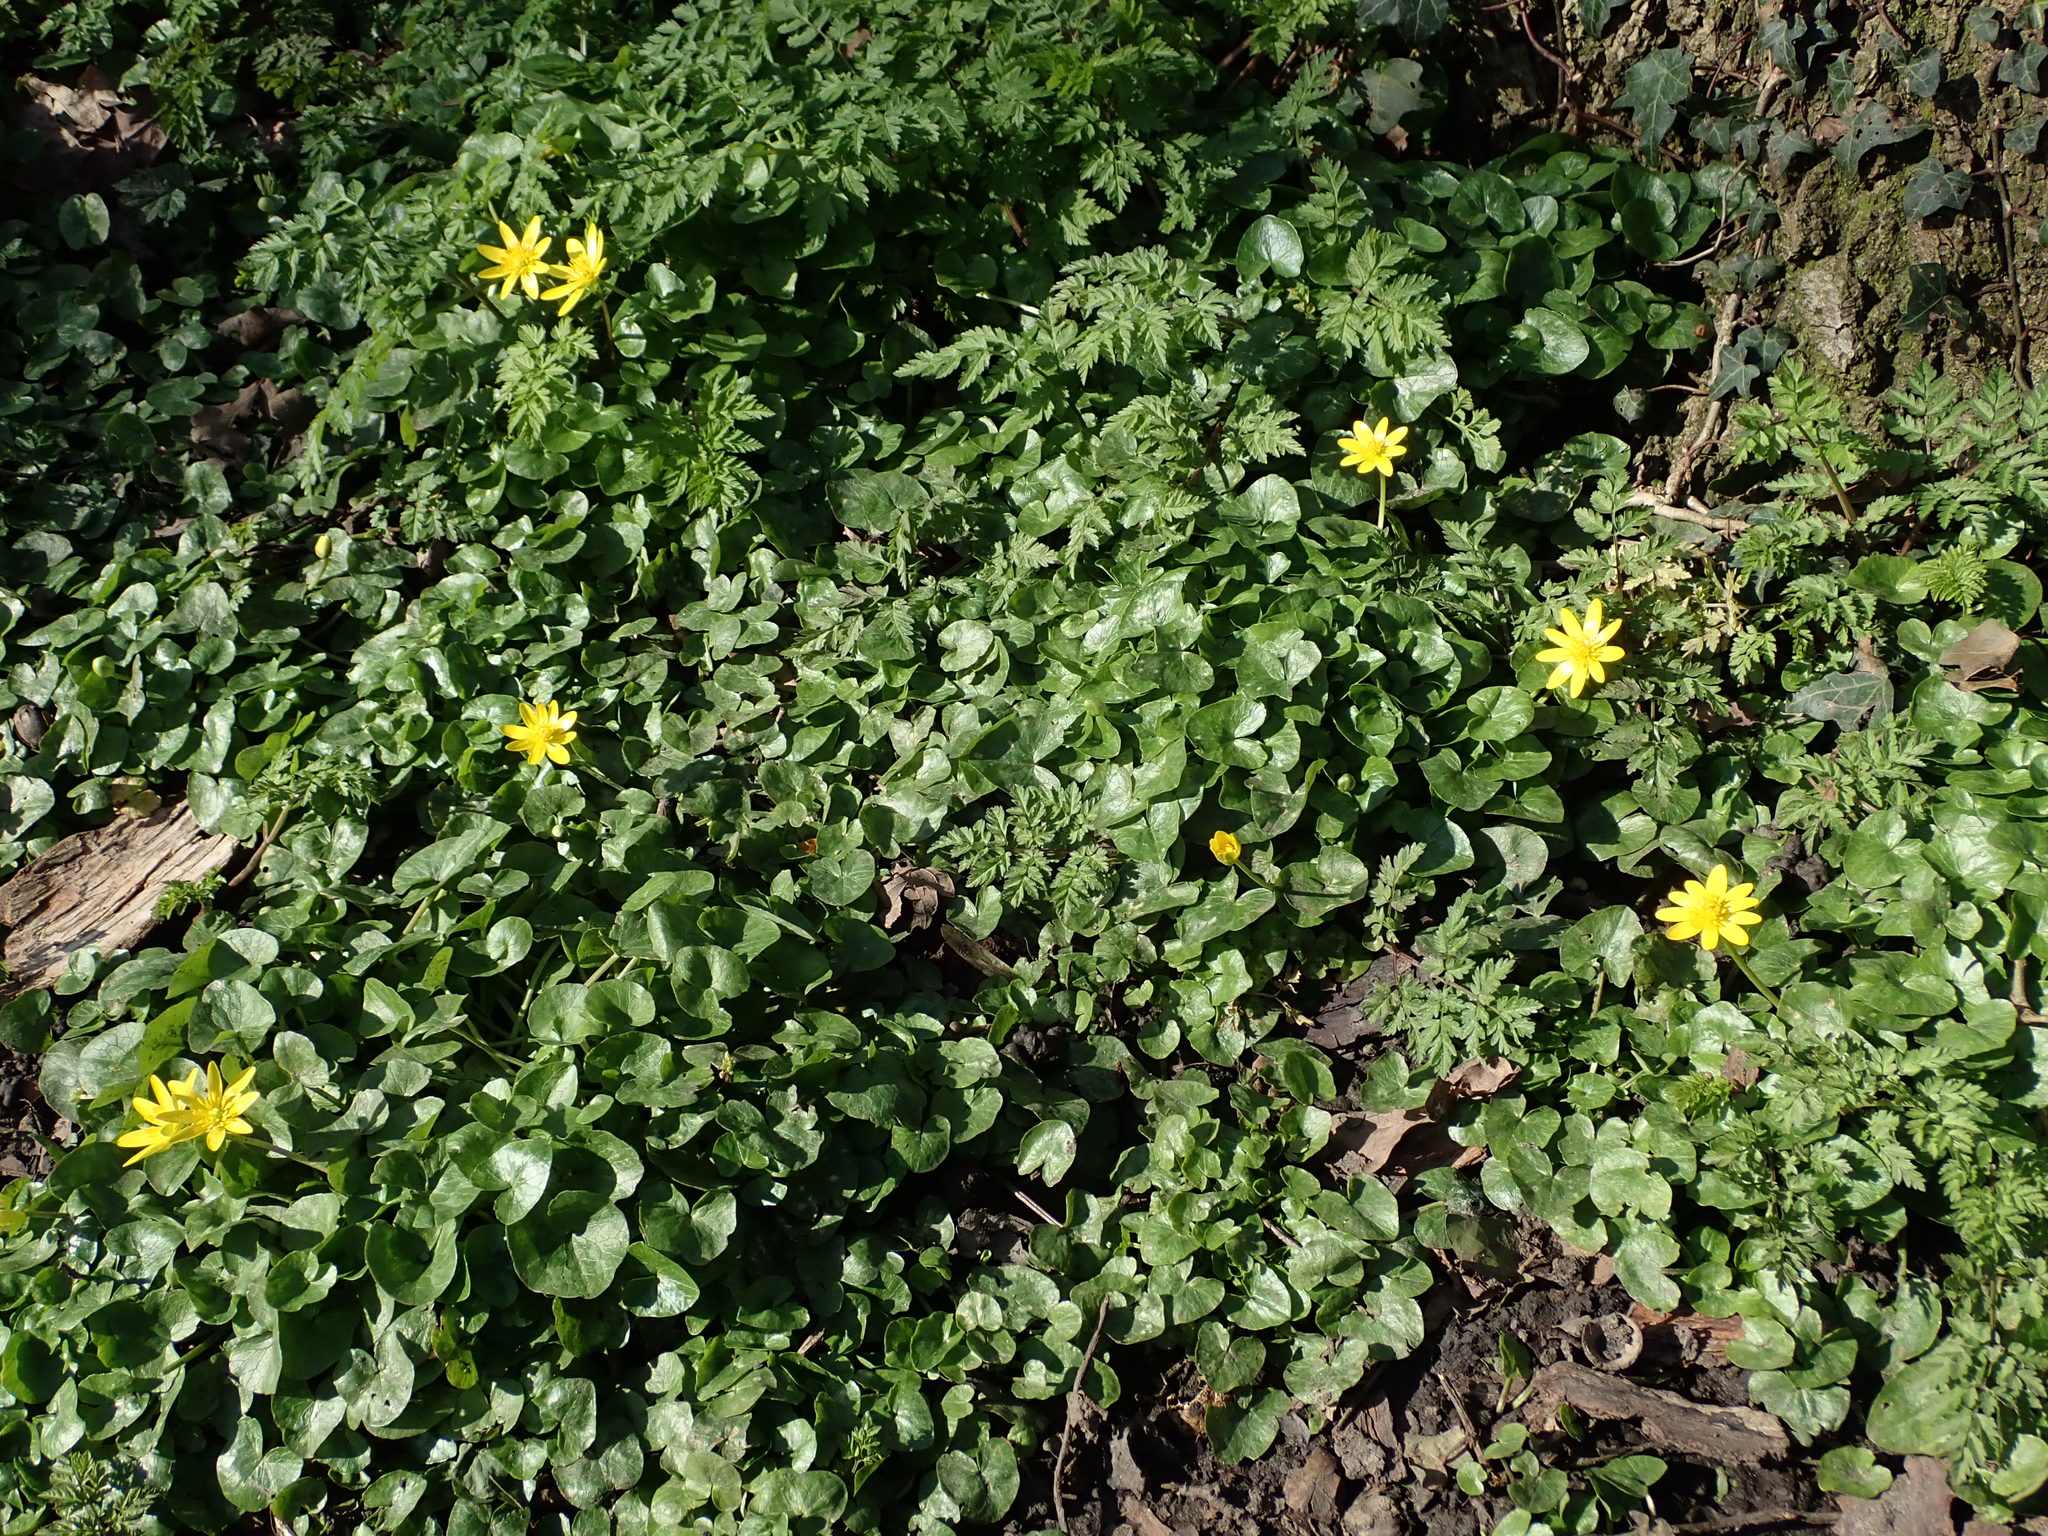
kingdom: Plantae
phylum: Tracheophyta
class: Magnoliopsida
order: Ranunculales
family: Ranunculaceae
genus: Ficaria
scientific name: Ficaria verna
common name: Lesser celandine
